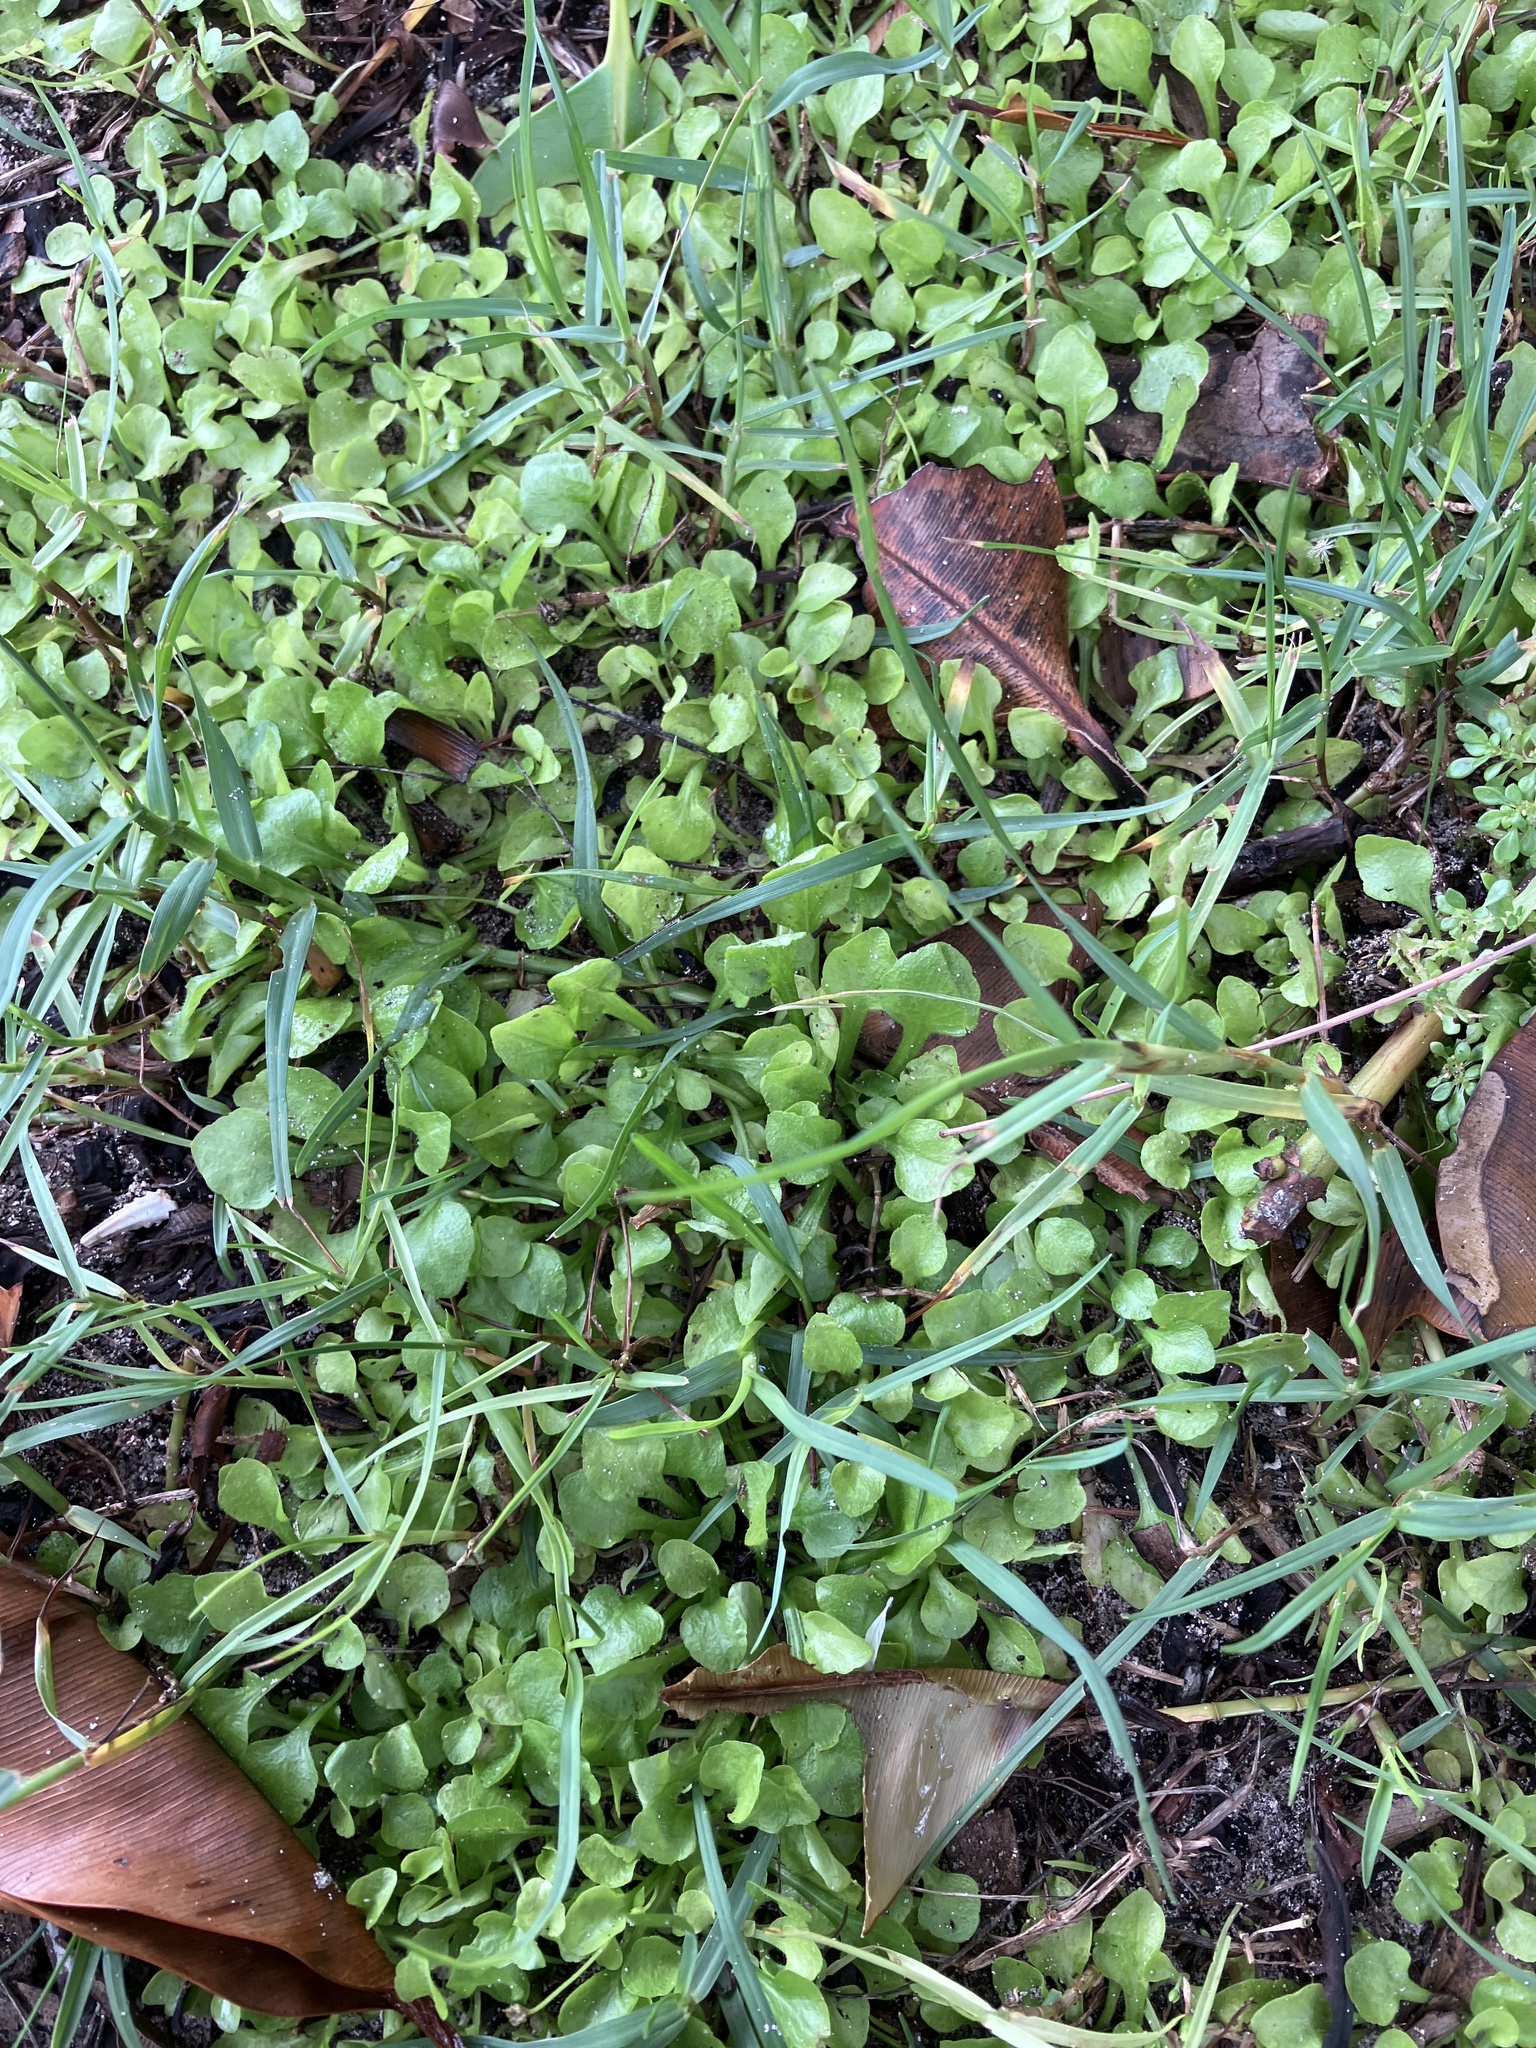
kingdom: Plantae
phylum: Tracheophyta
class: Magnoliopsida
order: Asterales
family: Asteraceae
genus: Erigeron
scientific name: Erigeron bellioides
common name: Bellorita
